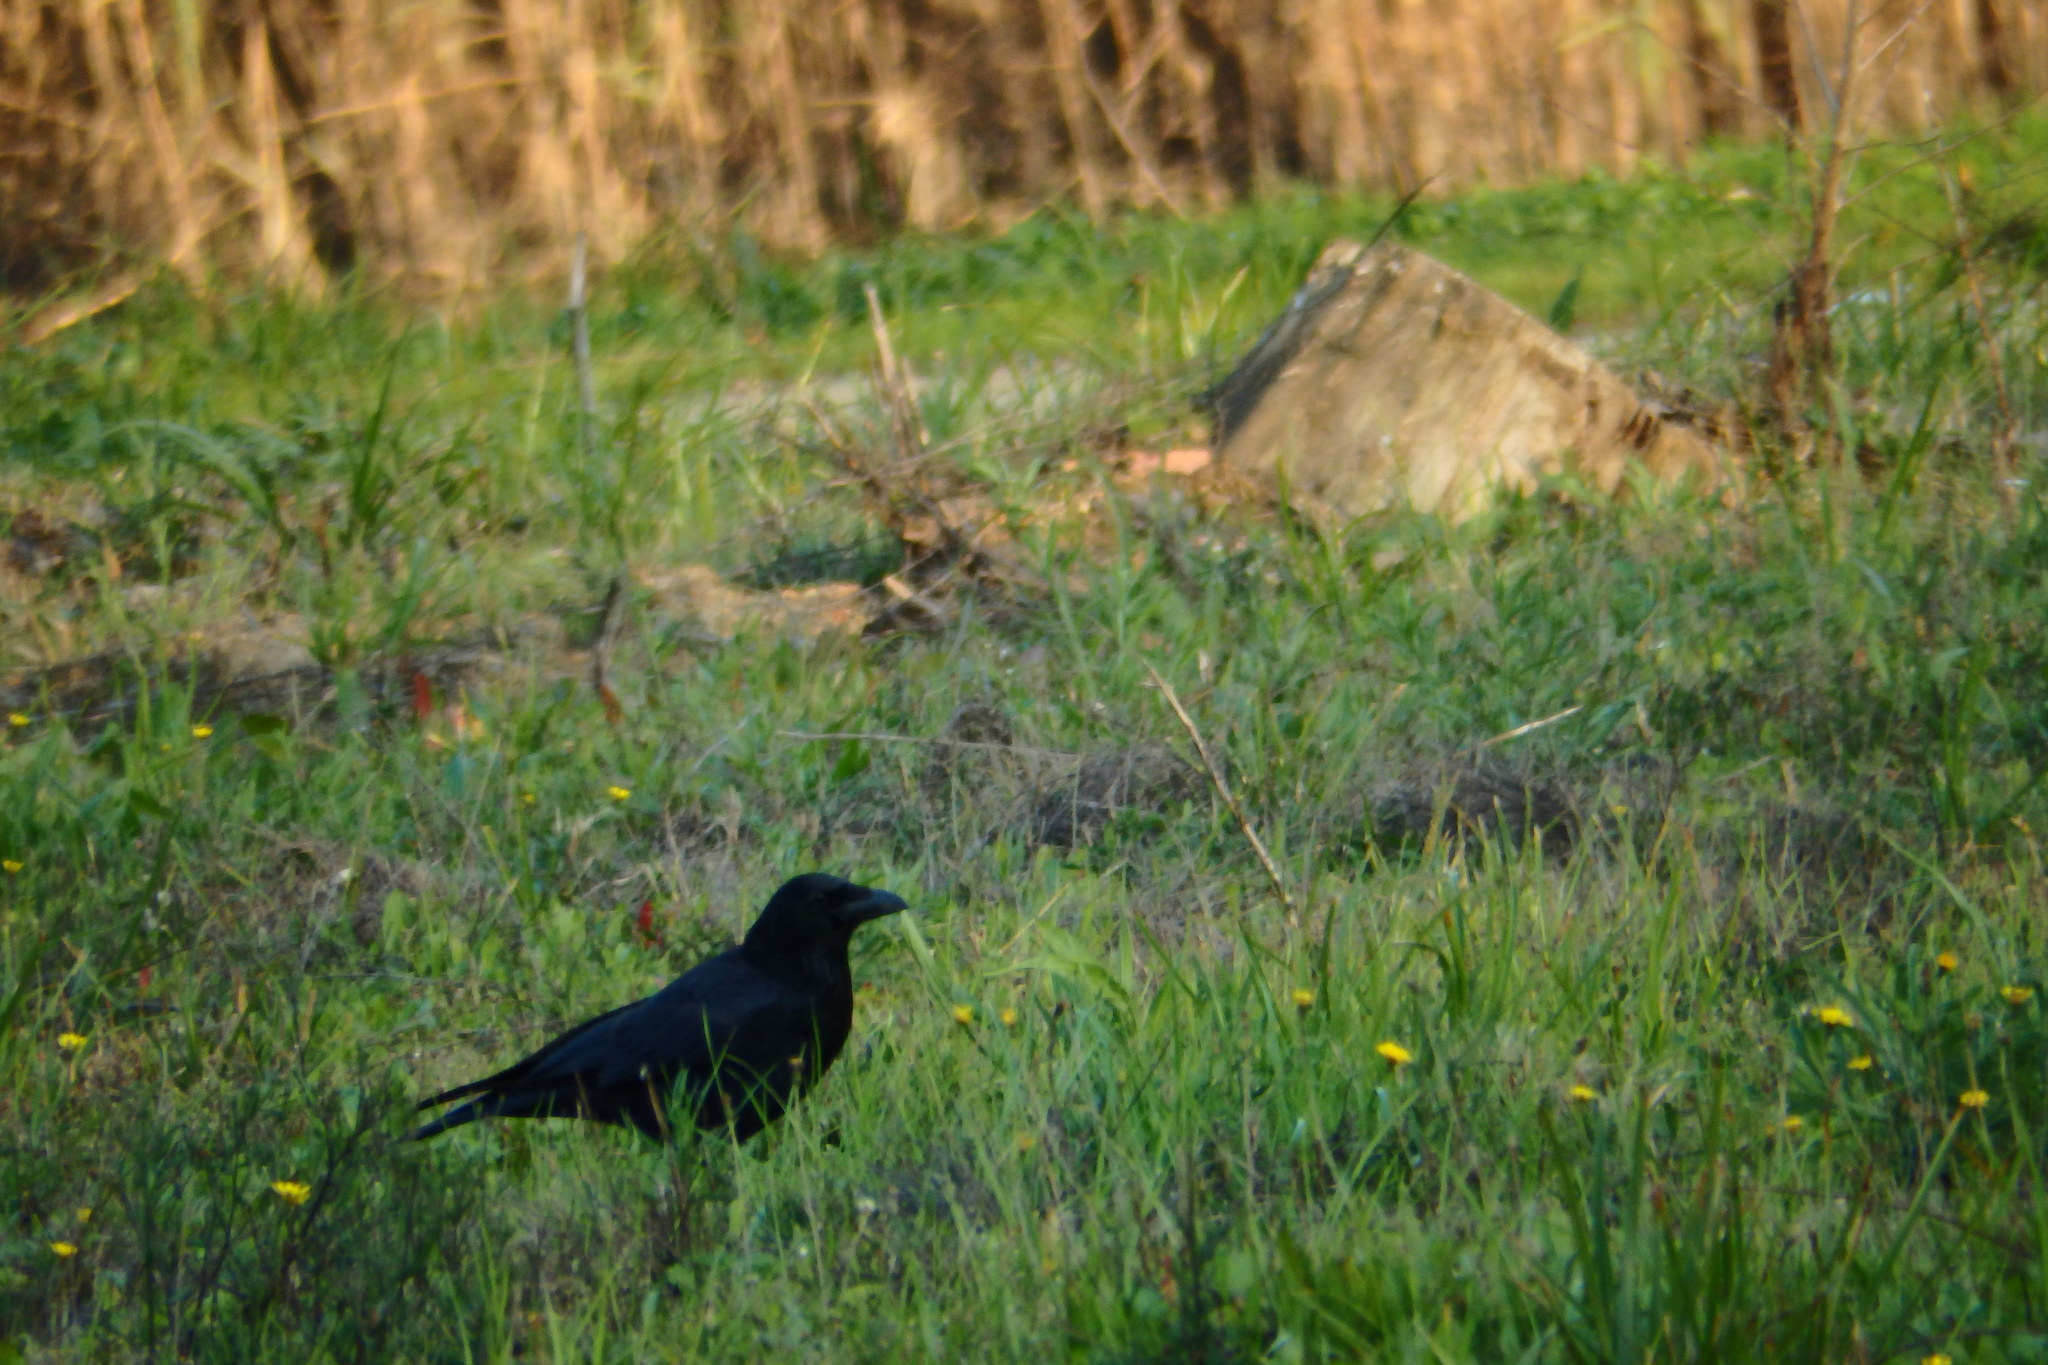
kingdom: Animalia
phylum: Chordata
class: Aves
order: Passeriformes
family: Corvidae
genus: Corvus
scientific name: Corvus corone
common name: Carrion crow
